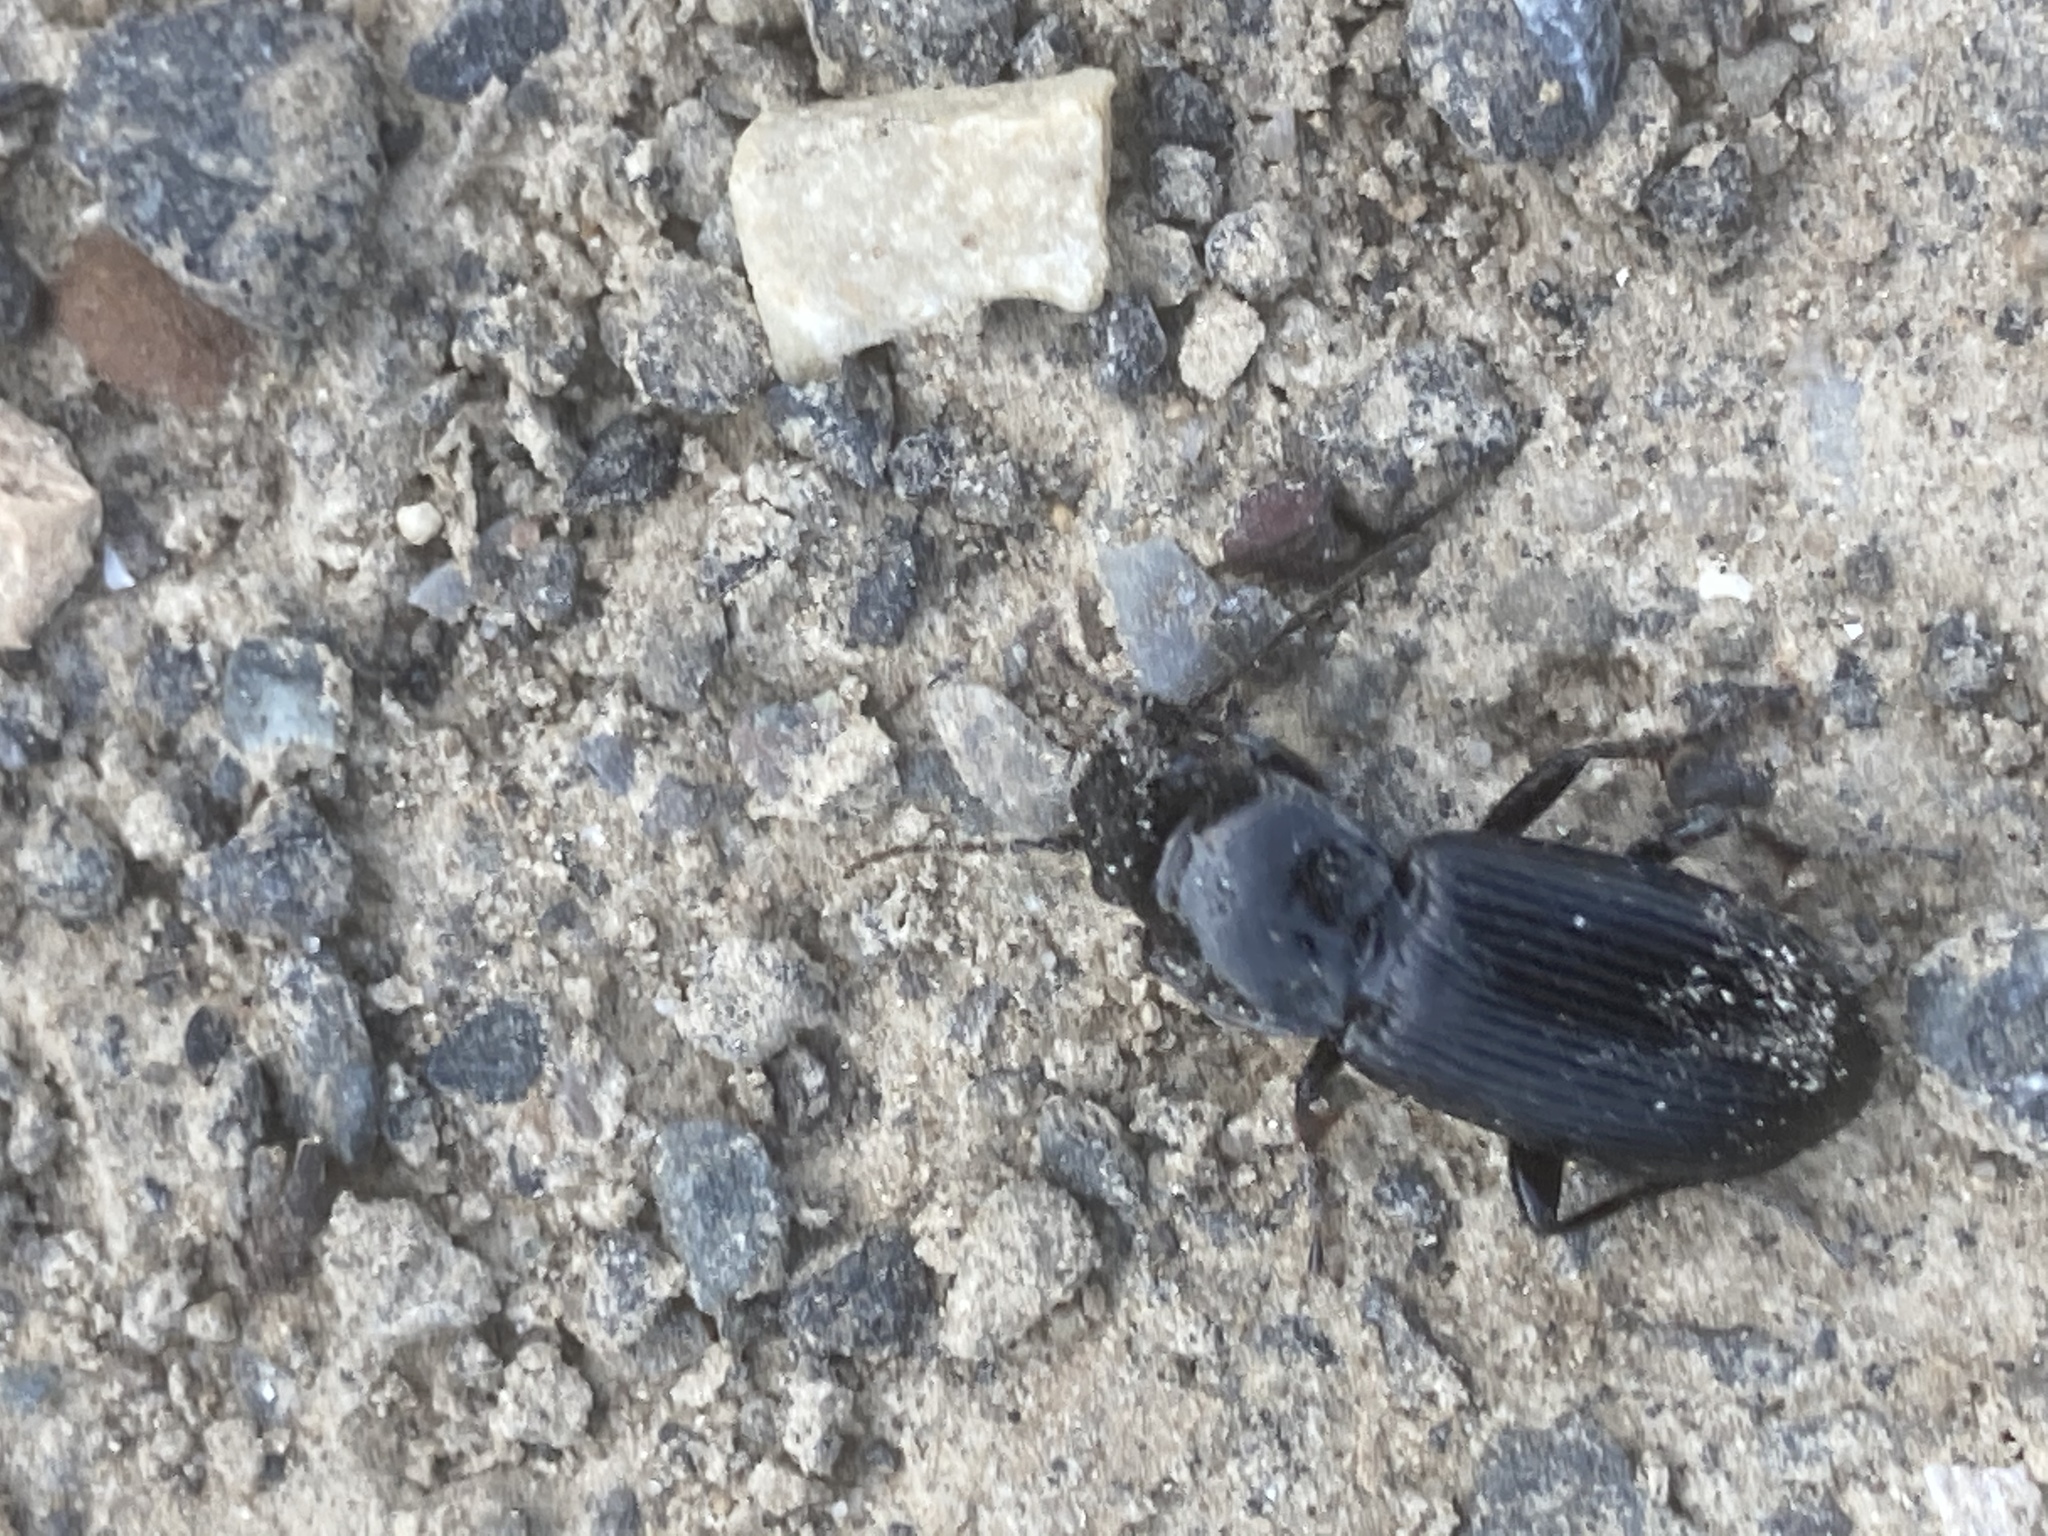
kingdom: Animalia
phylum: Arthropoda
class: Insecta
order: Coleoptera
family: Carabidae
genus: Pterostichus
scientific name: Pterostichus melanarius
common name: European dark harp ground beetle
